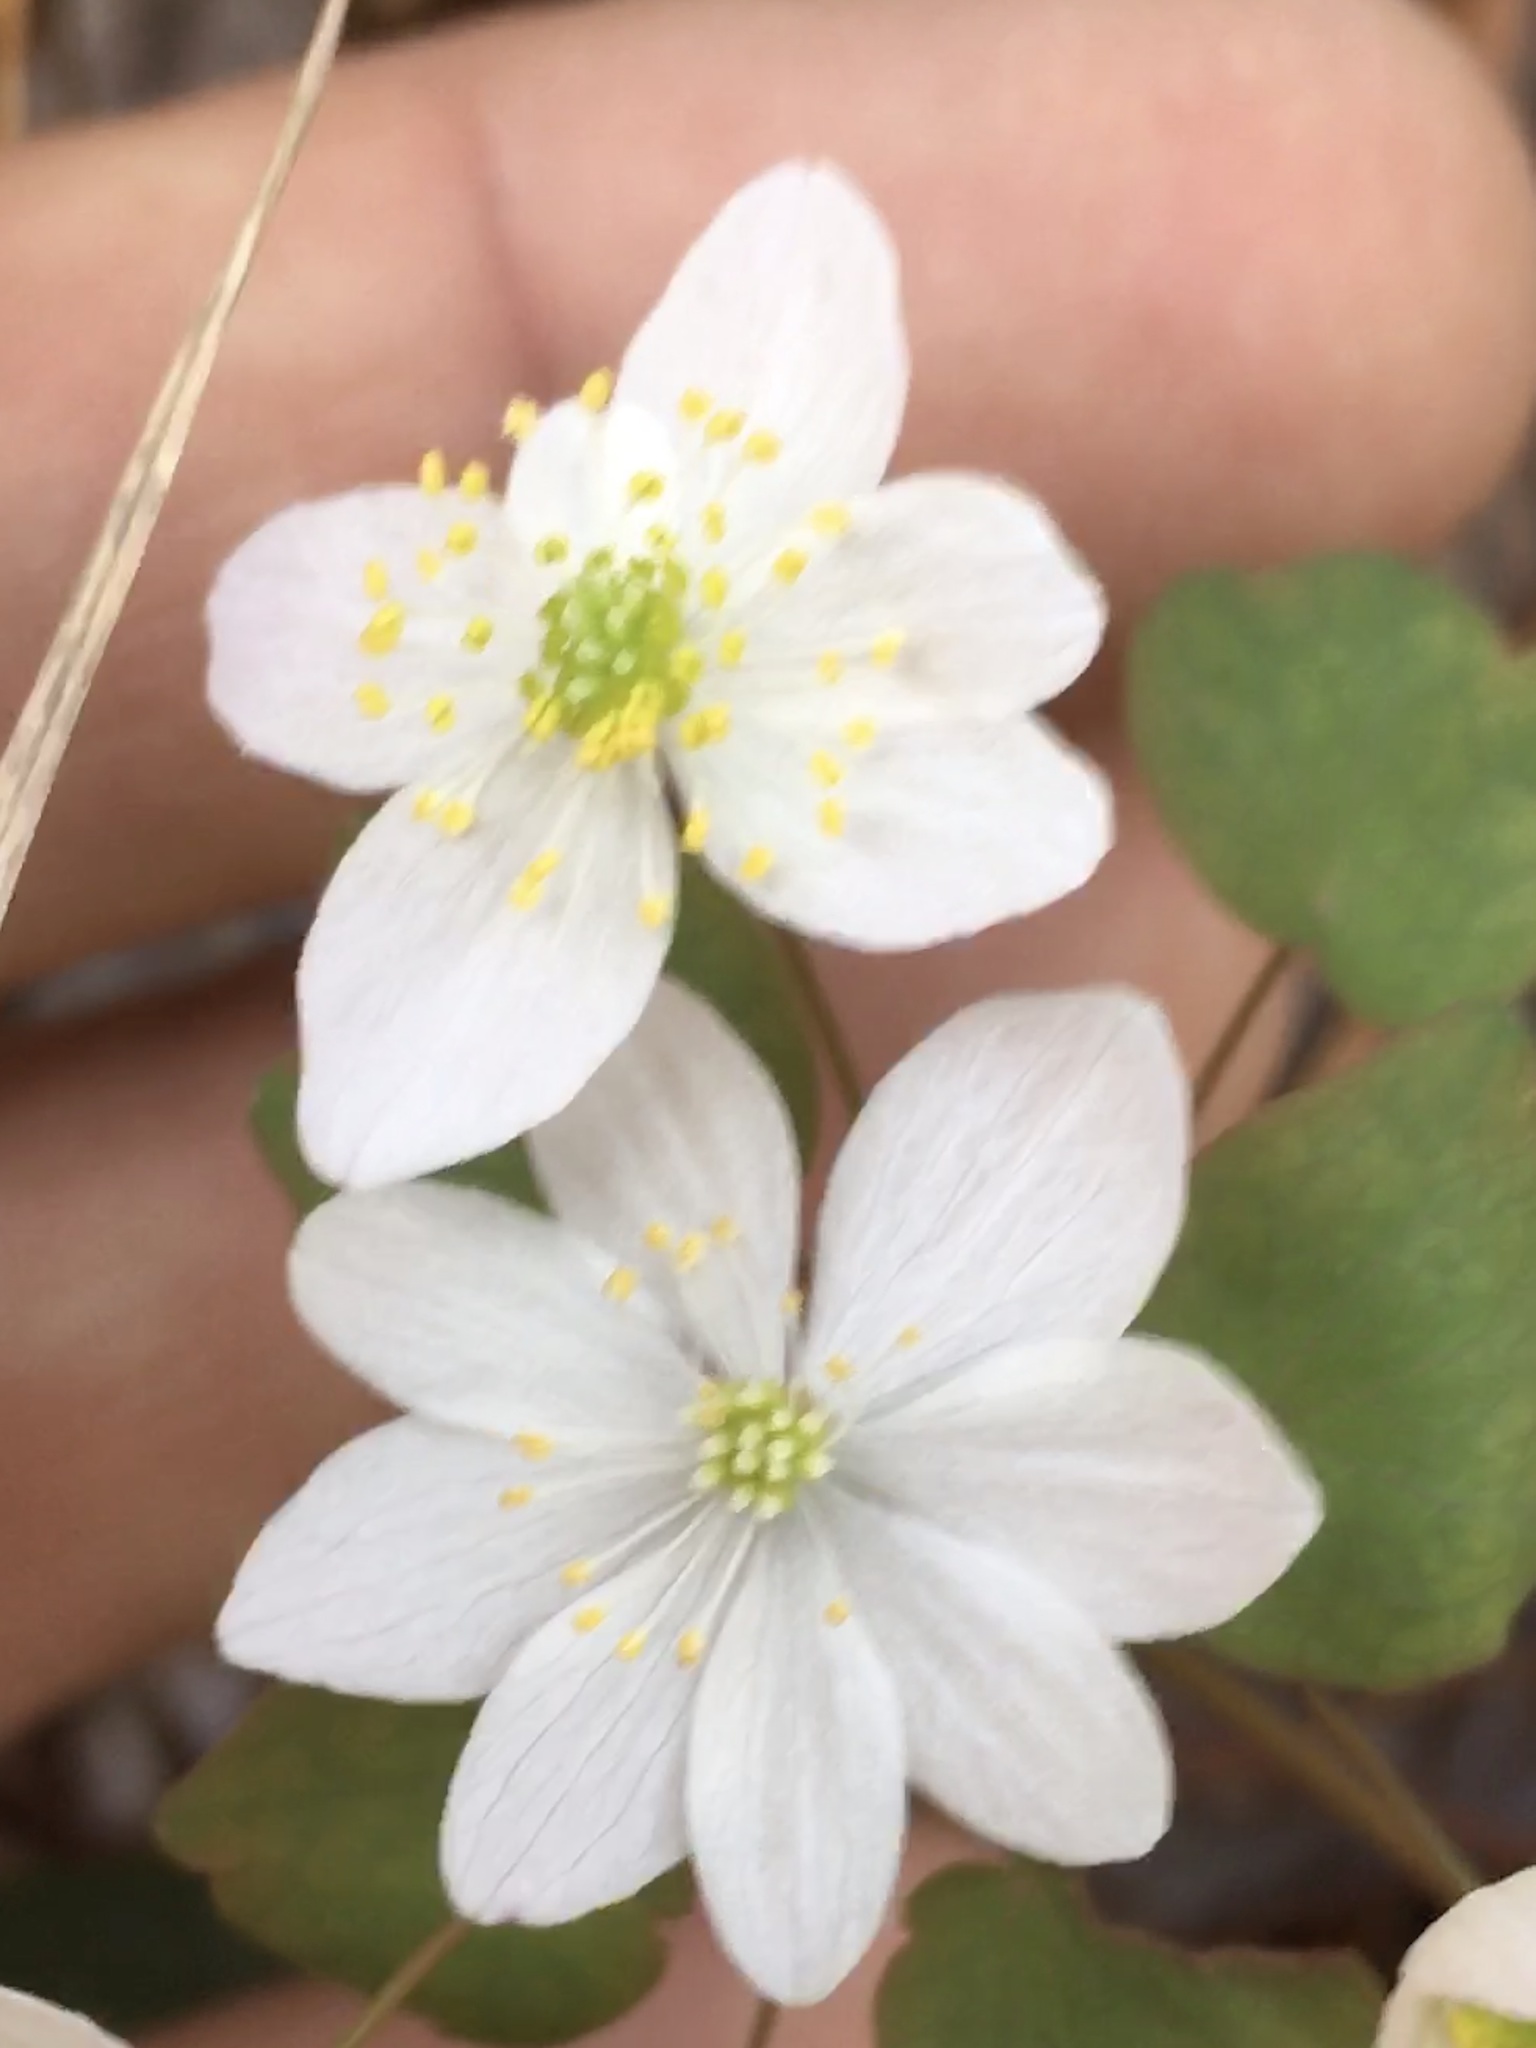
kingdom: Plantae
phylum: Tracheophyta
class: Magnoliopsida
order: Ranunculales
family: Ranunculaceae
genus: Thalictrum
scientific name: Thalictrum thalictroides
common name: Rue-anemone
